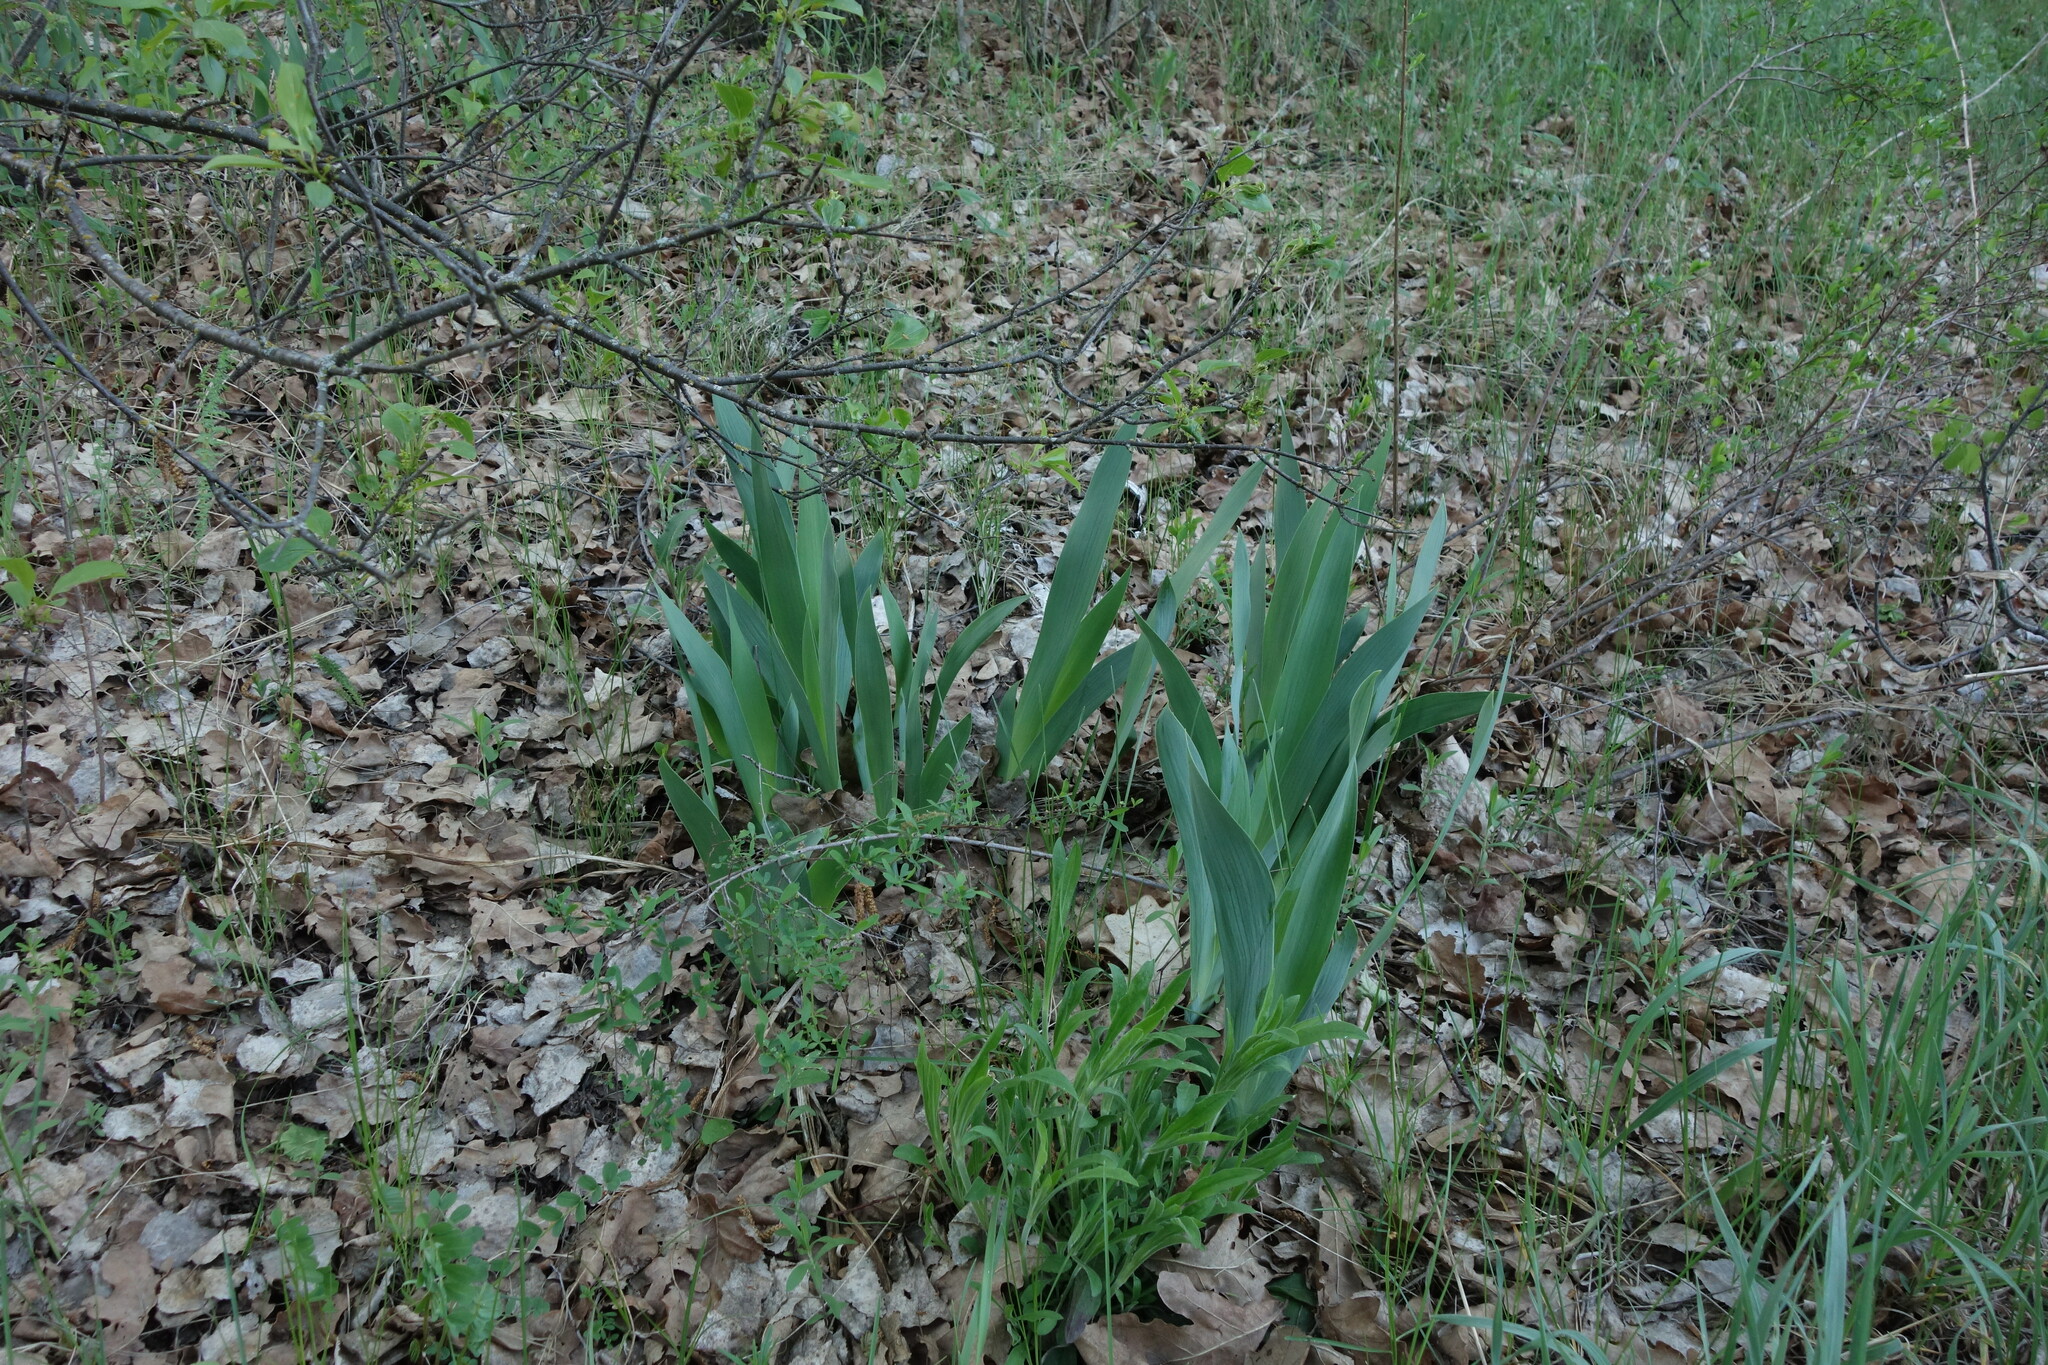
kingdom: Plantae
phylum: Tracheophyta
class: Liliopsida
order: Asparagales
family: Iridaceae
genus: Iris
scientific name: Iris aphylla
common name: Stool iris
